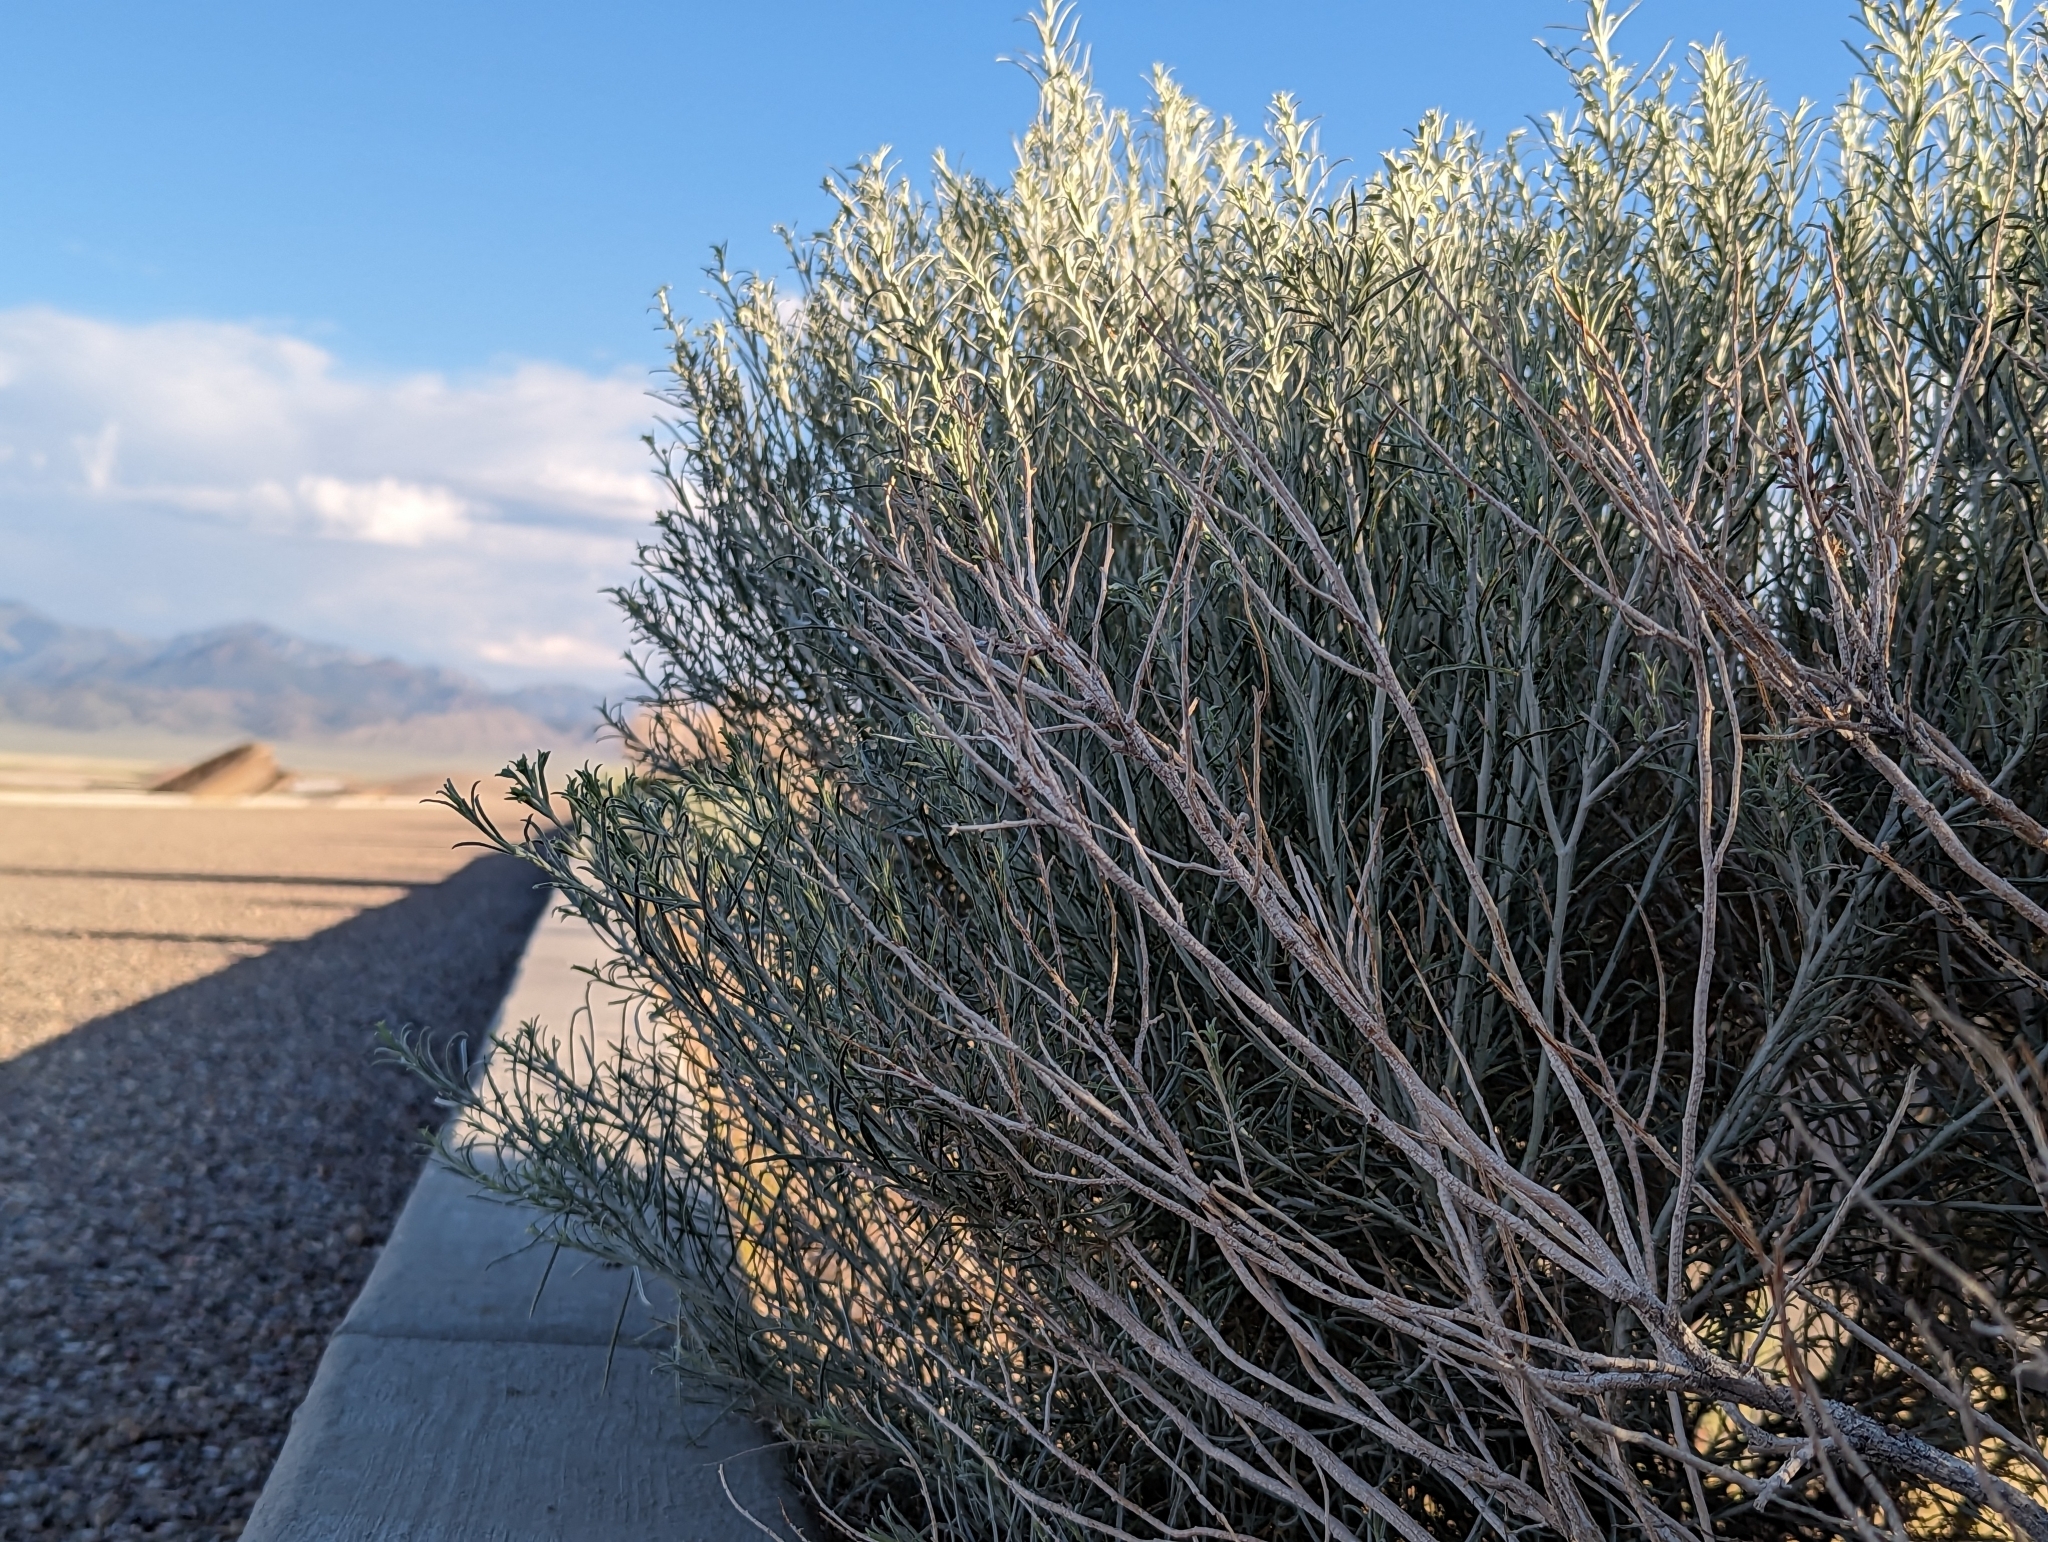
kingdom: Plantae
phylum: Tracheophyta
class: Magnoliopsida
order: Asterales
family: Asteraceae
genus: Ericameria
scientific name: Ericameria nauseosa
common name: Rubber rabbitbrush
